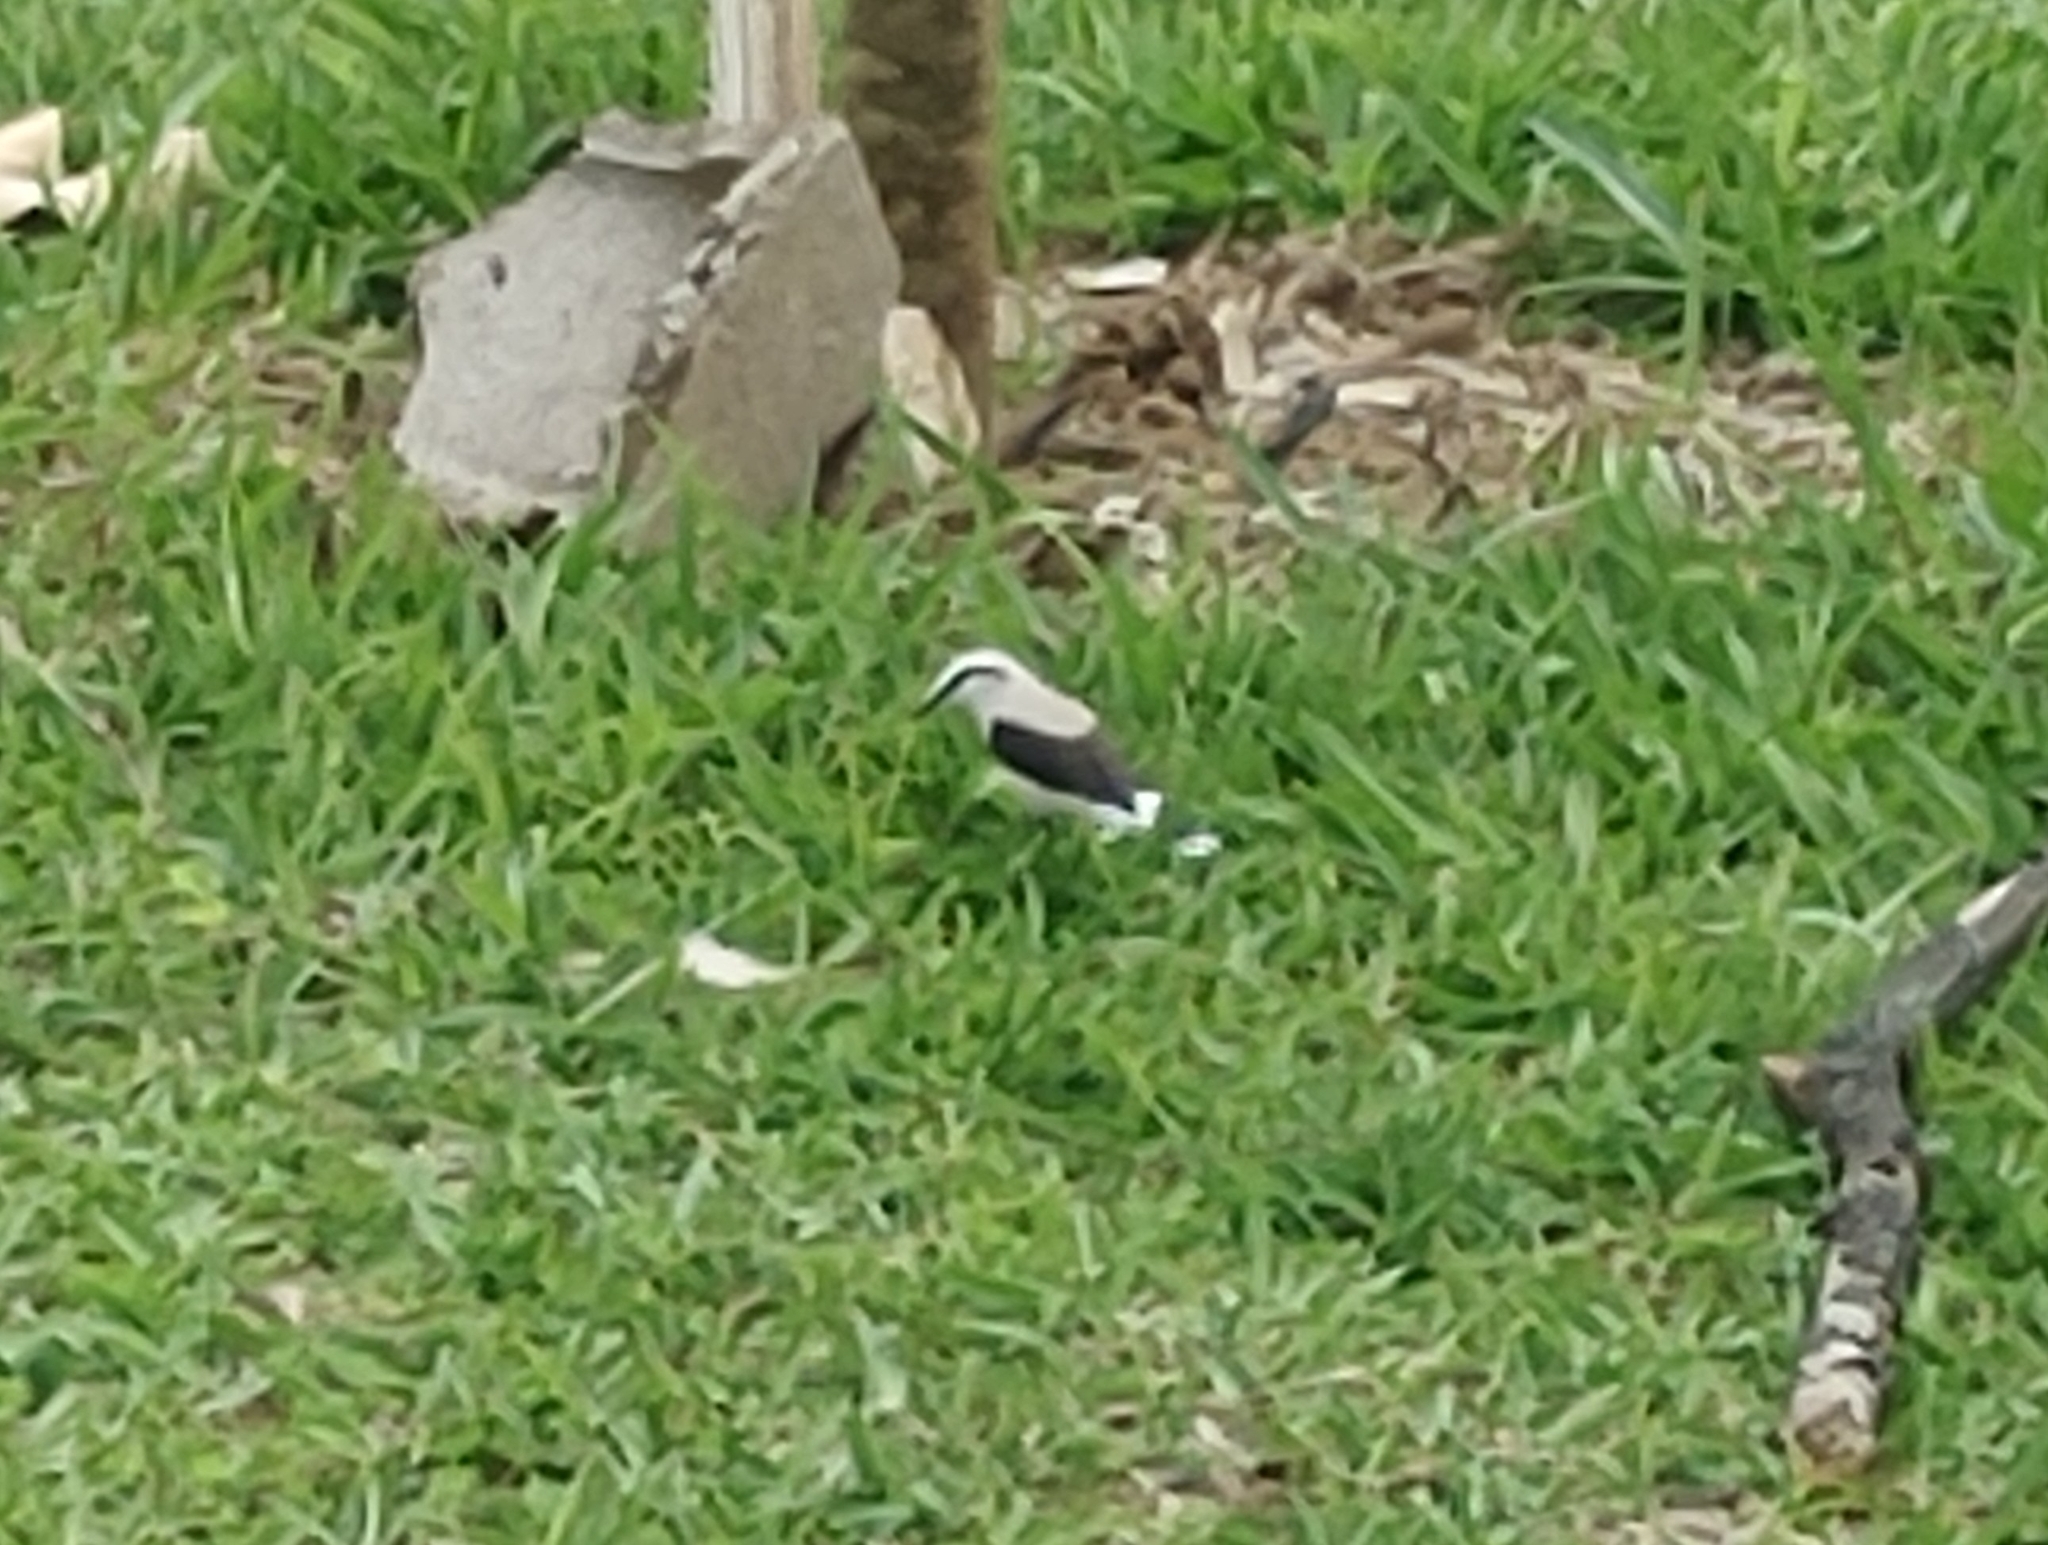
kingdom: Animalia
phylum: Chordata
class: Aves
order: Passeriformes
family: Tyrannidae
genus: Fluvicola
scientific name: Fluvicola nengeta
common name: Masked water tyrant
